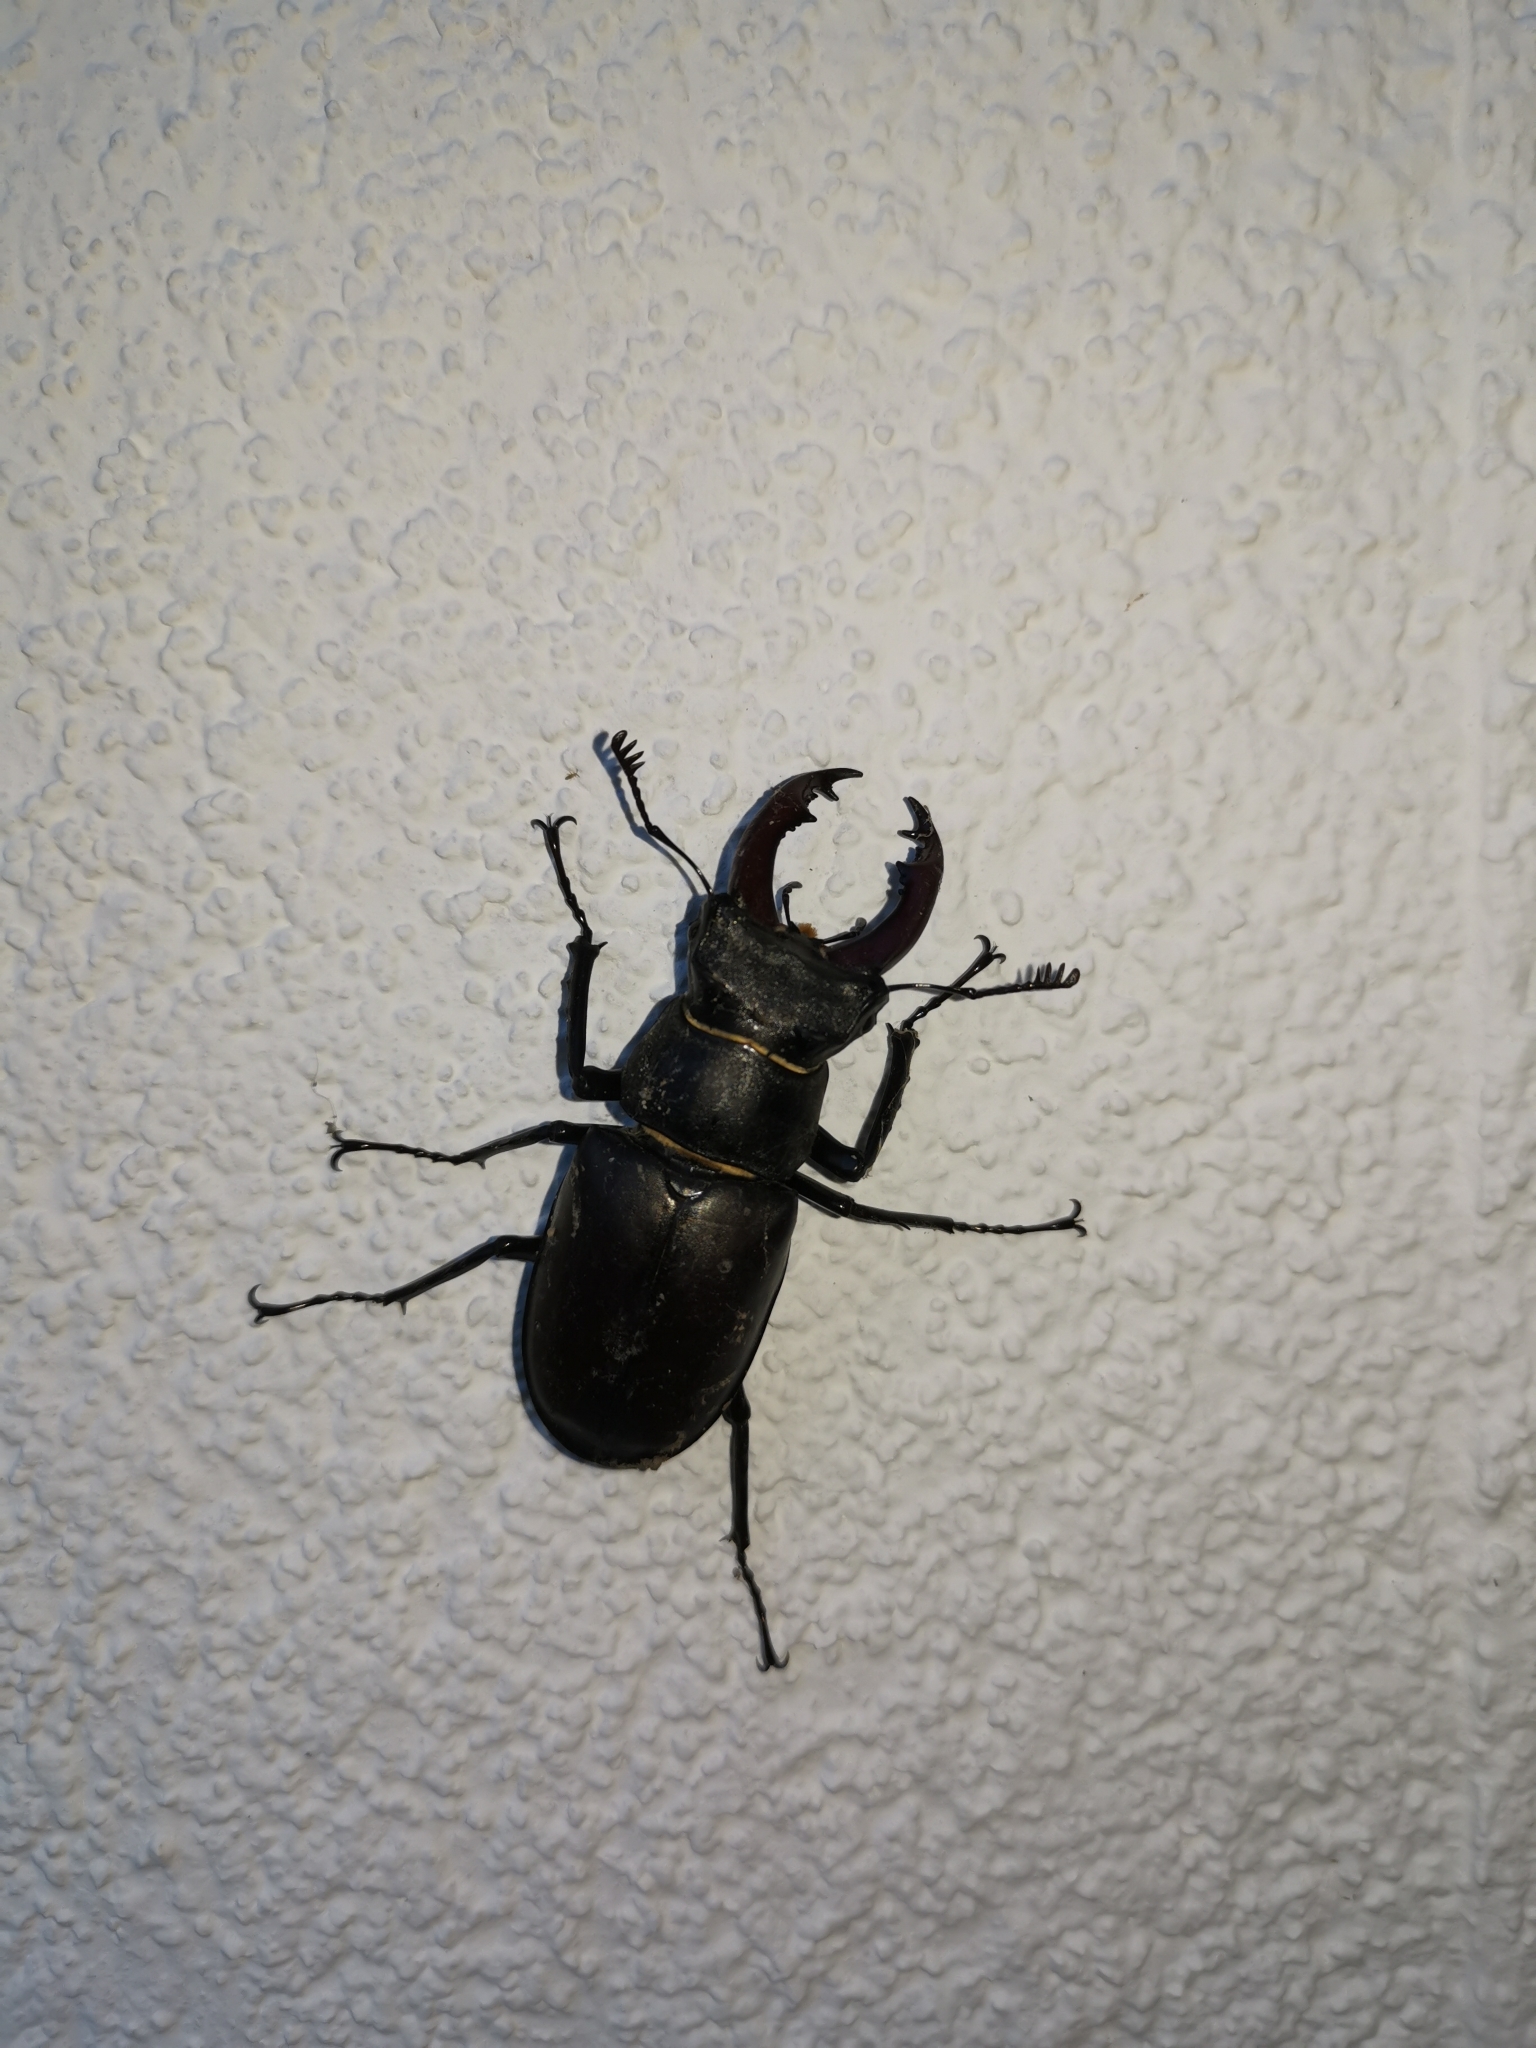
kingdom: Animalia
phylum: Arthropoda
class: Insecta
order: Coleoptera
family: Lucanidae
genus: Lucanus
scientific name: Lucanus cervus
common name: Stag beetle
